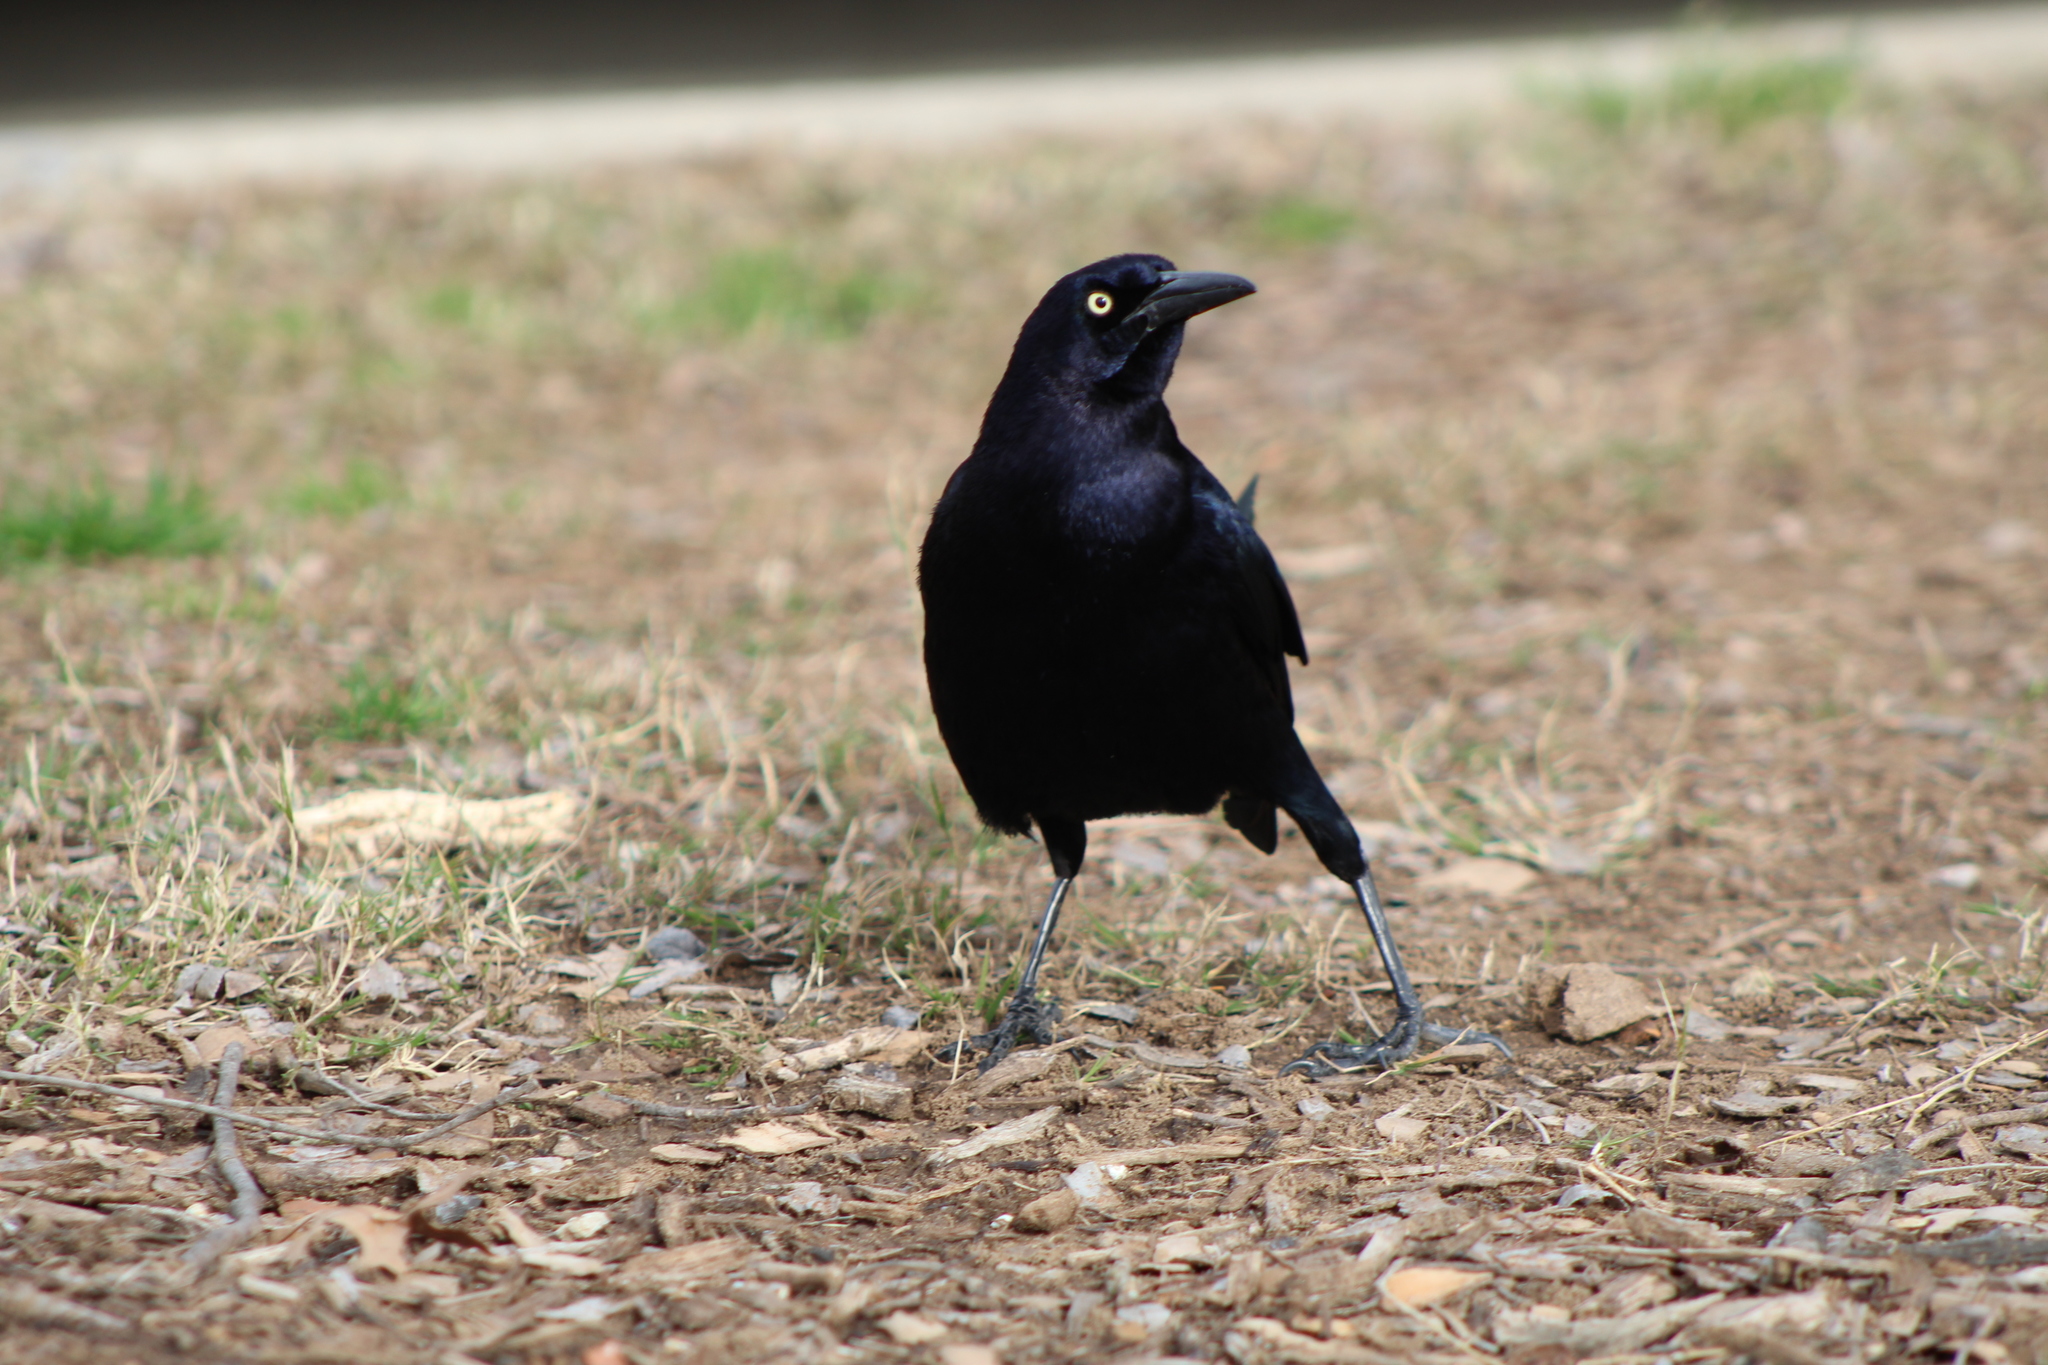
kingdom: Animalia
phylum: Chordata
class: Aves
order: Passeriformes
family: Icteridae
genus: Quiscalus
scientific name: Quiscalus mexicanus
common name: Great-tailed grackle
